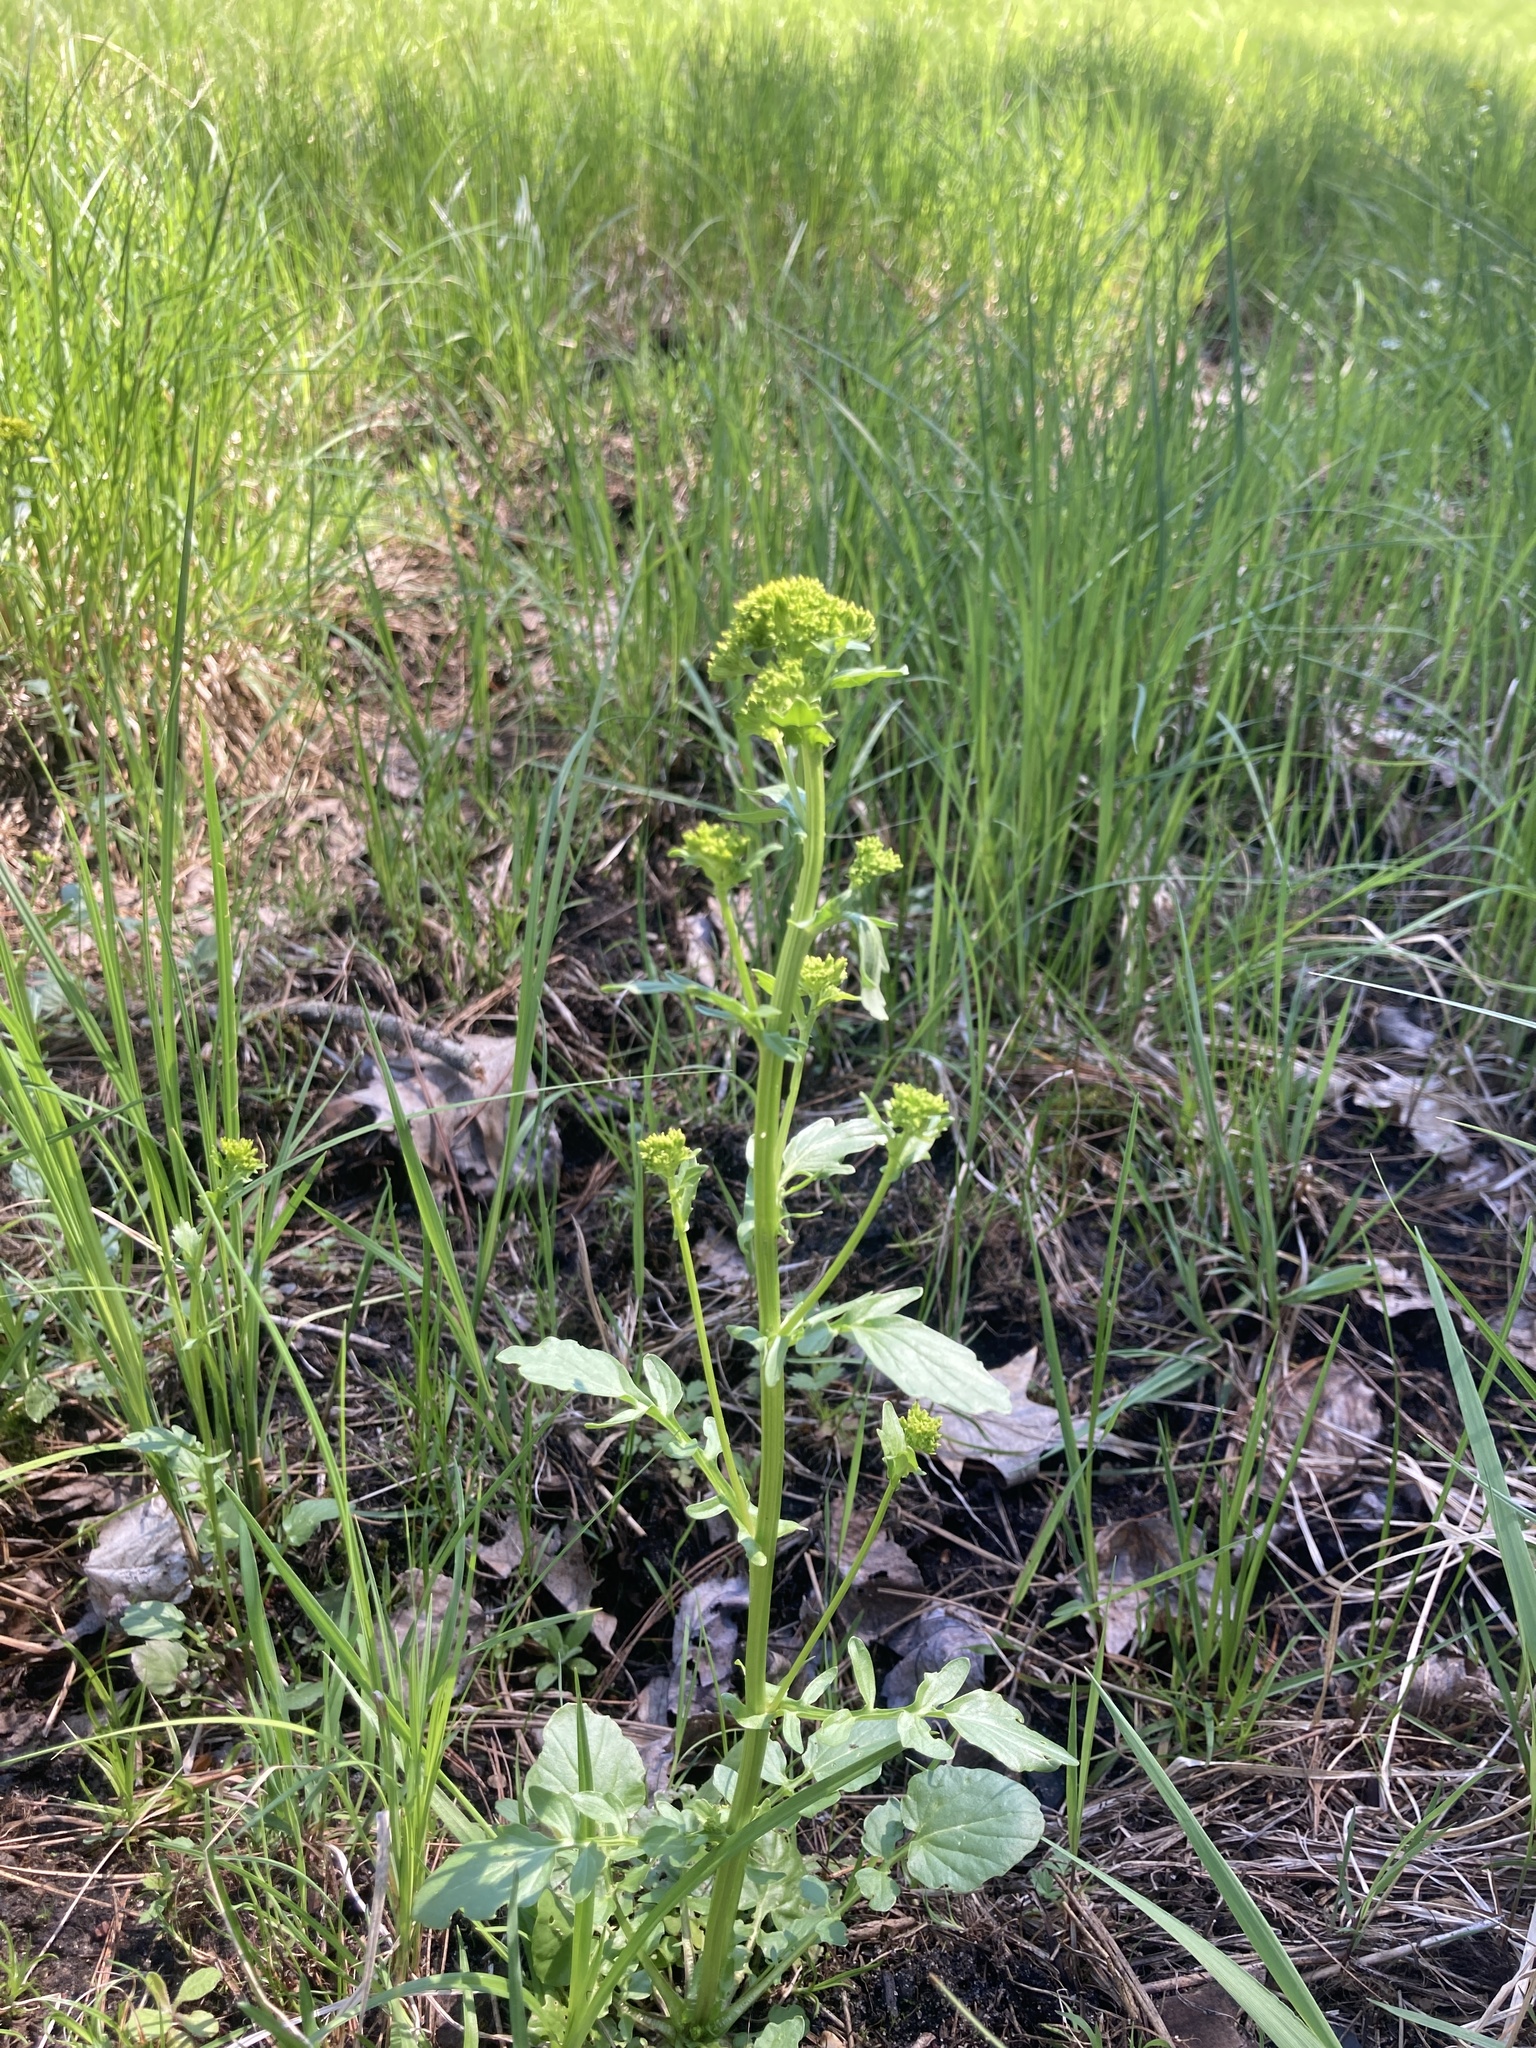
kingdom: Plantae
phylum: Tracheophyta
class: Magnoliopsida
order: Brassicales
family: Brassicaceae
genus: Barbarea
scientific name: Barbarea vulgaris
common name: Cressy-greens
